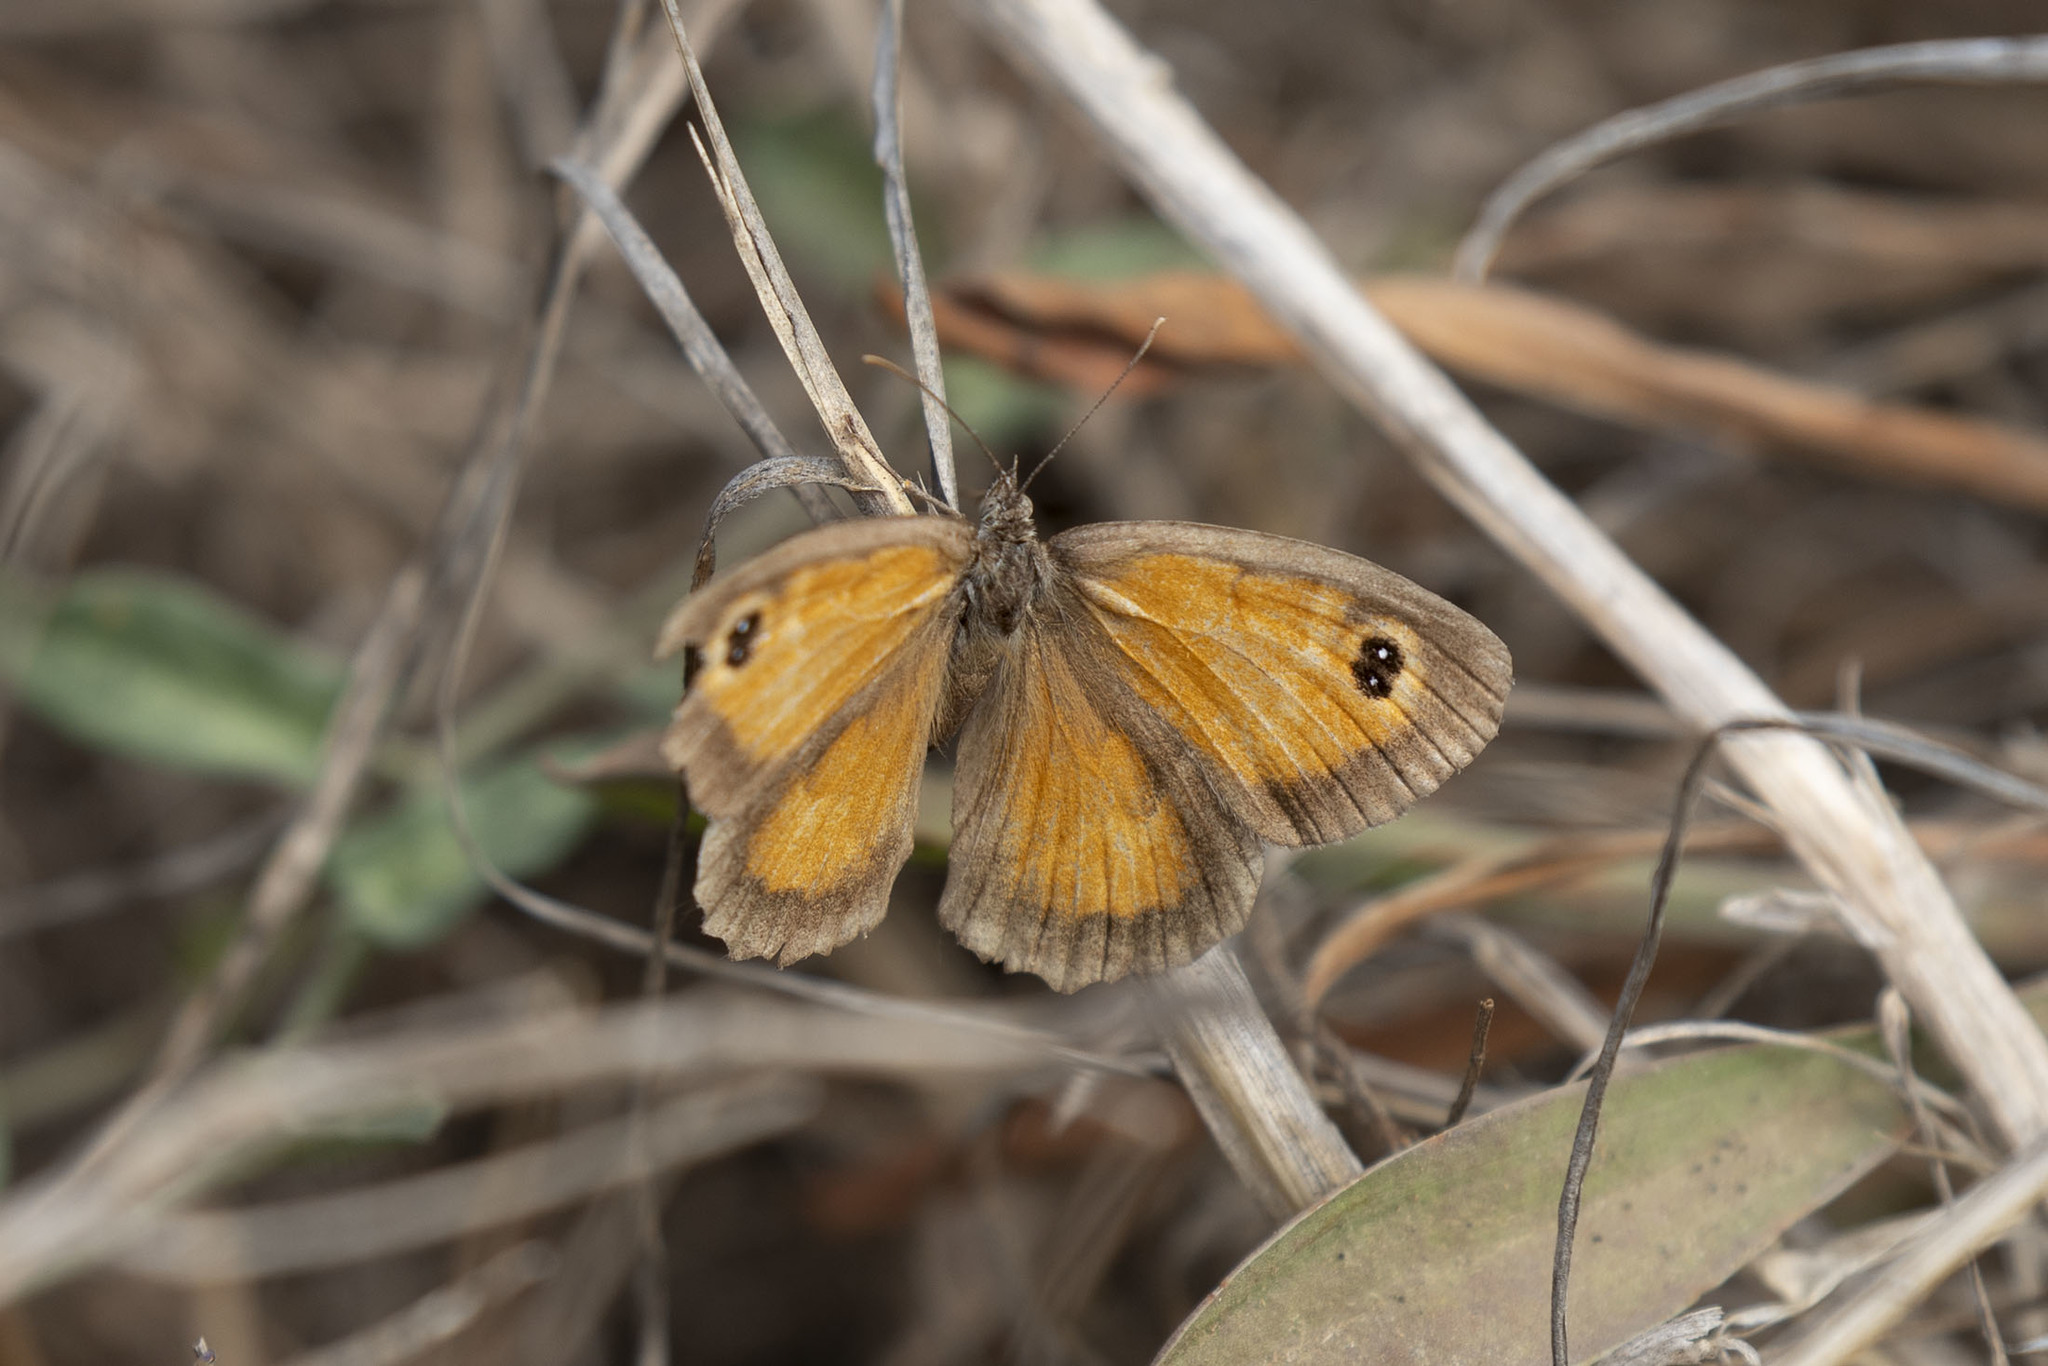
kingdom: Animalia
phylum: Arthropoda
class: Insecta
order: Lepidoptera
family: Nymphalidae
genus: Pyronia
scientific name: Pyronia cecilia
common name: Southern gatekeeper
